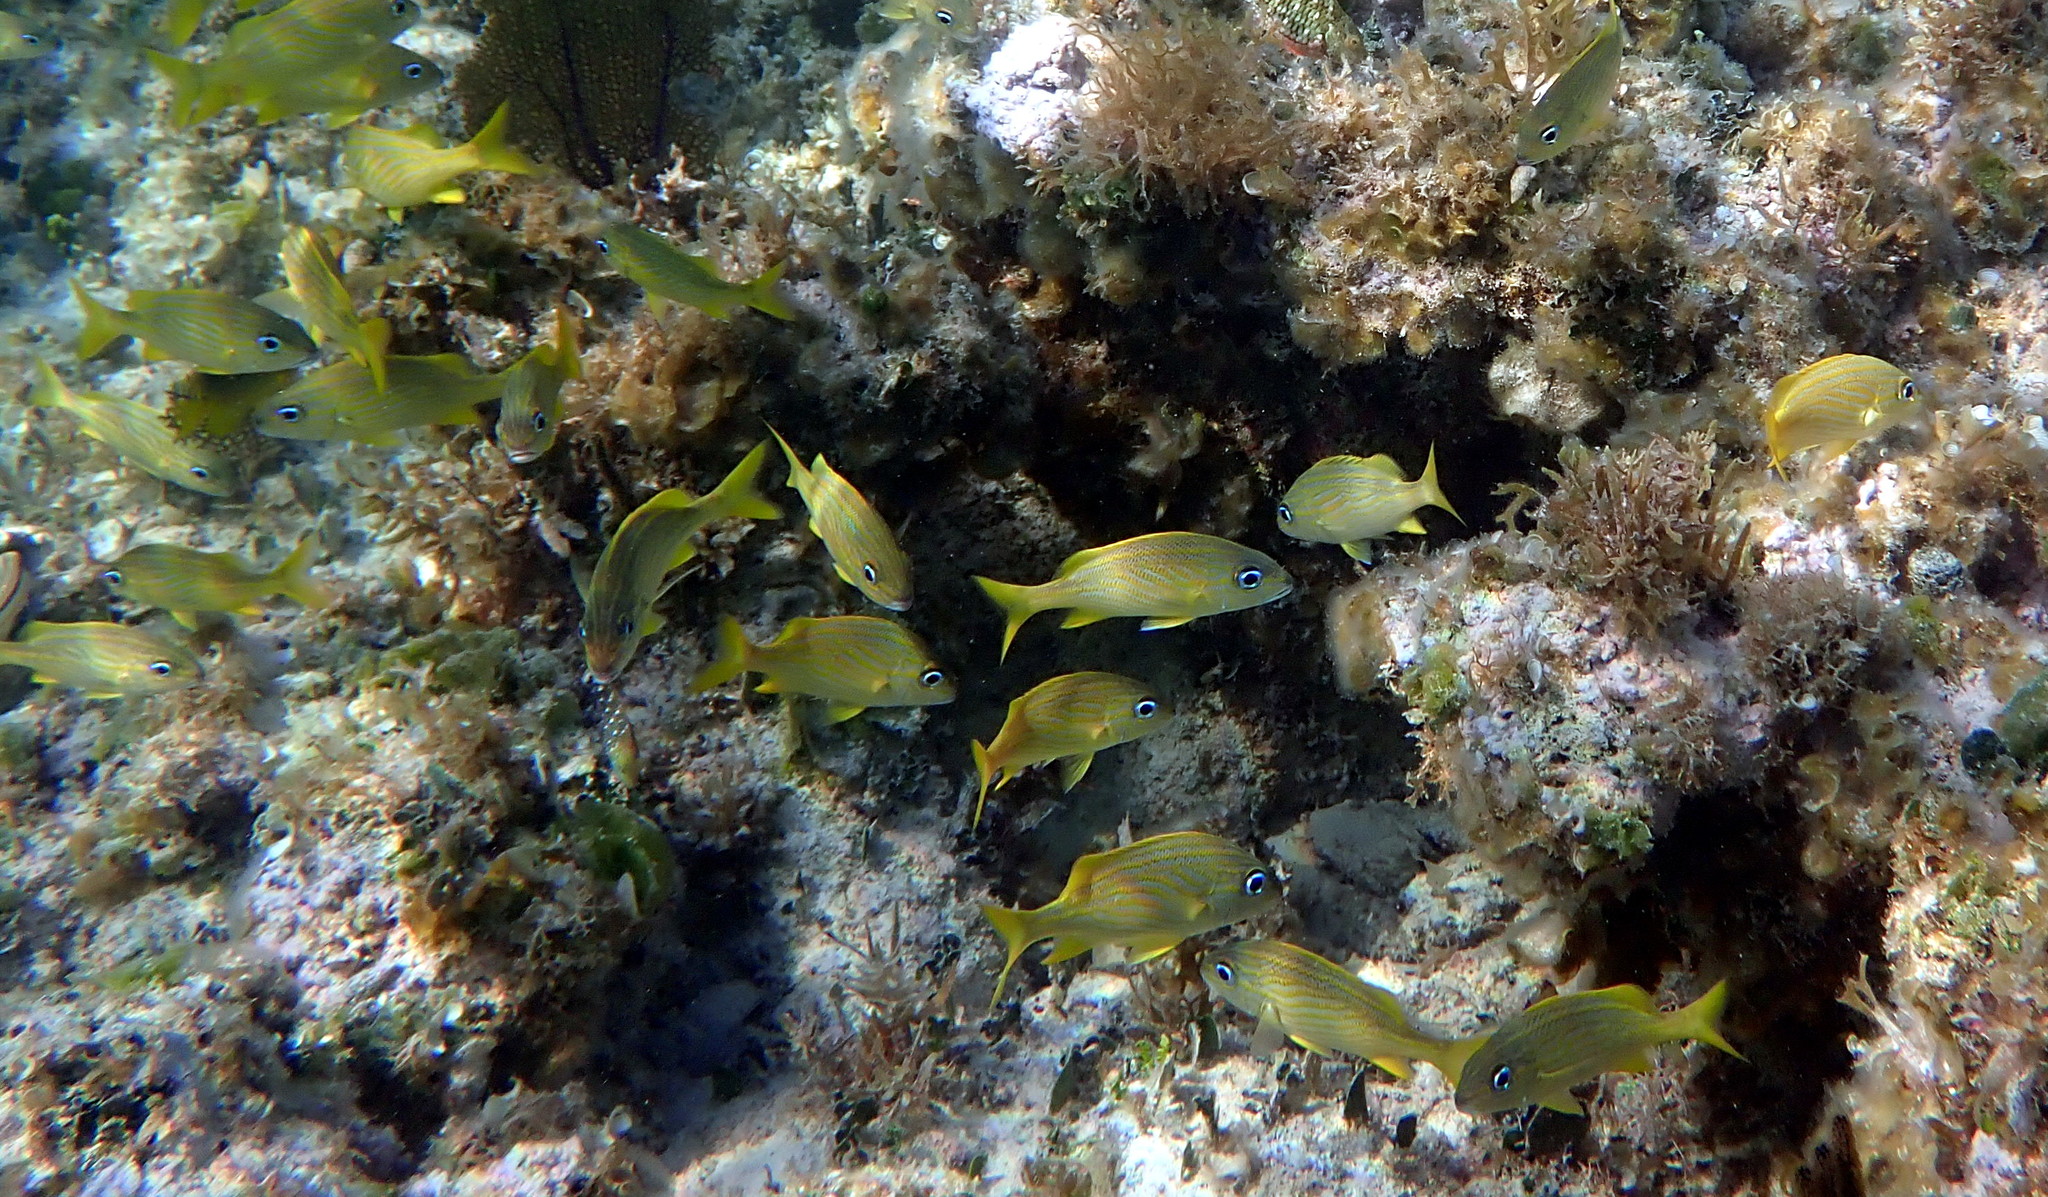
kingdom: Animalia
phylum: Chordata
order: Perciformes
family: Haemulidae
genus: Haemulon
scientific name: Haemulon flavolineatum
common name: French grunt
